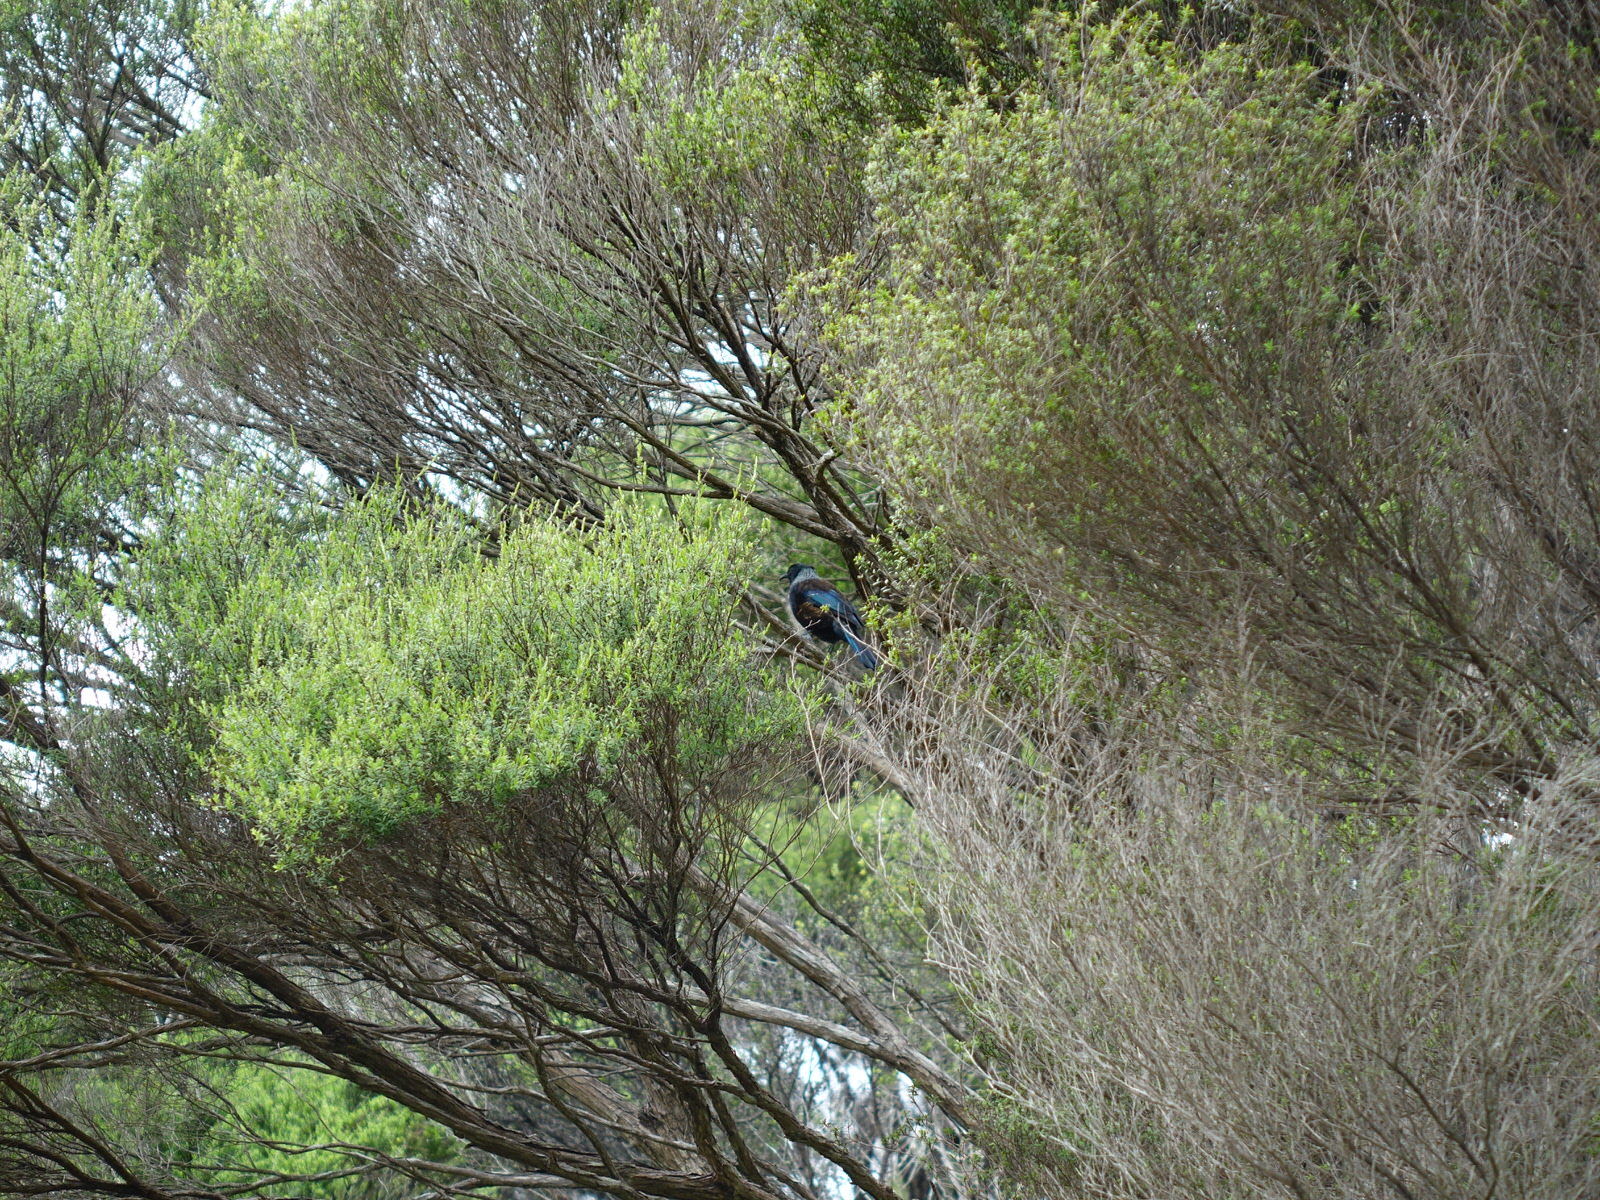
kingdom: Animalia
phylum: Chordata
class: Aves
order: Passeriformes
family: Meliphagidae
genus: Prosthemadera
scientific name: Prosthemadera novaeseelandiae
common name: Tui
